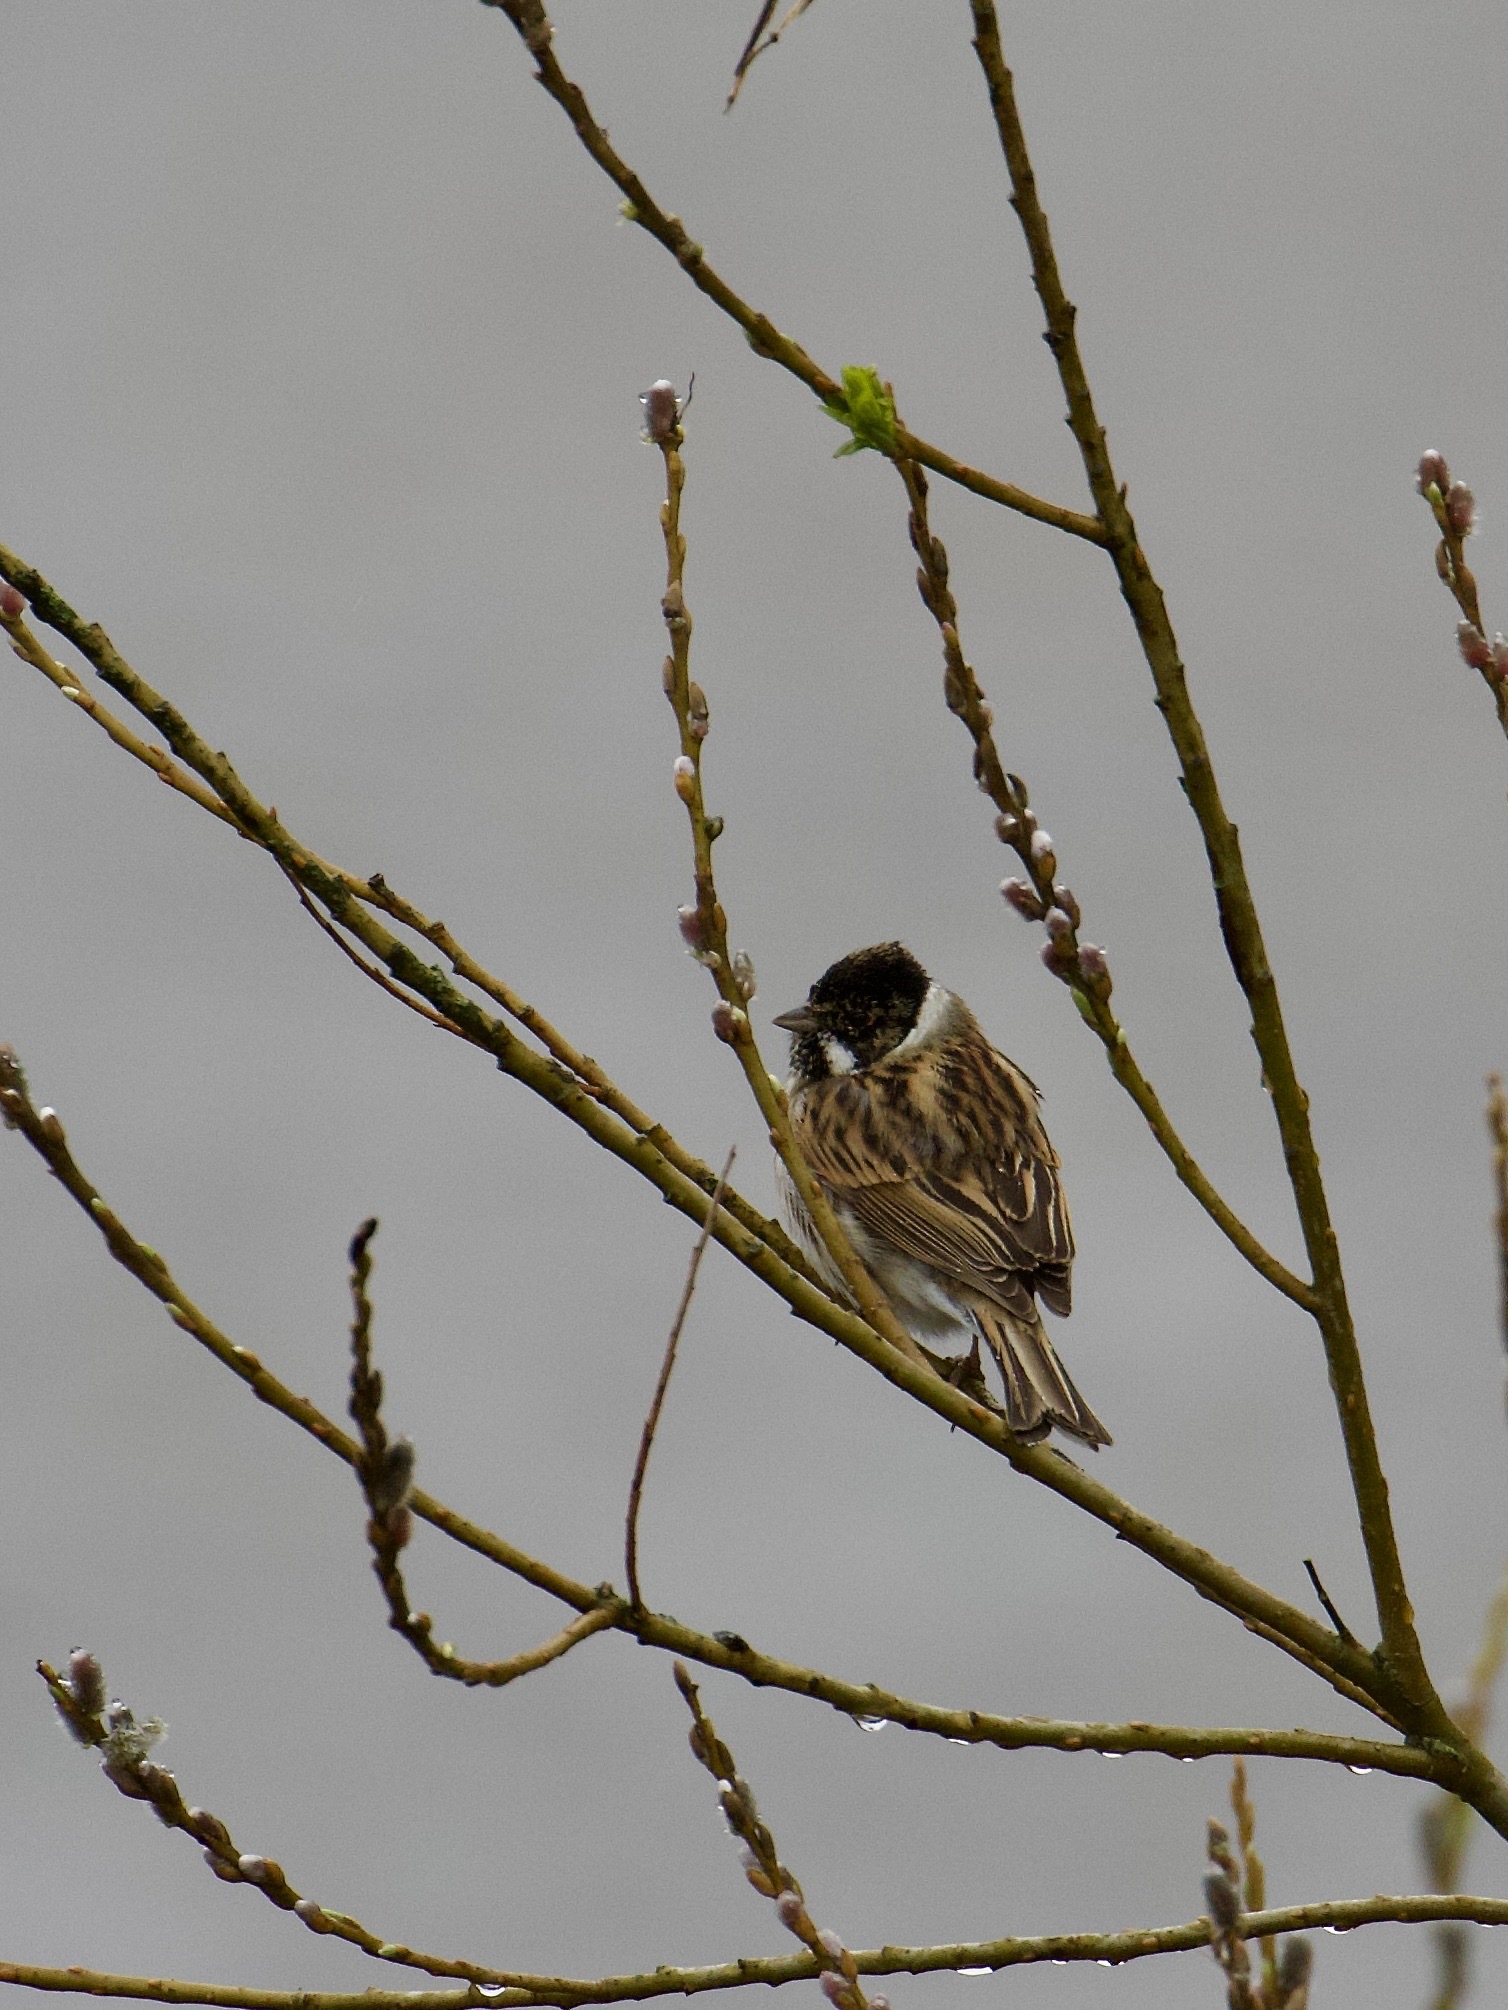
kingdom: Animalia
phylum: Chordata
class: Aves
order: Passeriformes
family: Emberizidae
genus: Emberiza
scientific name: Emberiza schoeniclus
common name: Reed bunting
